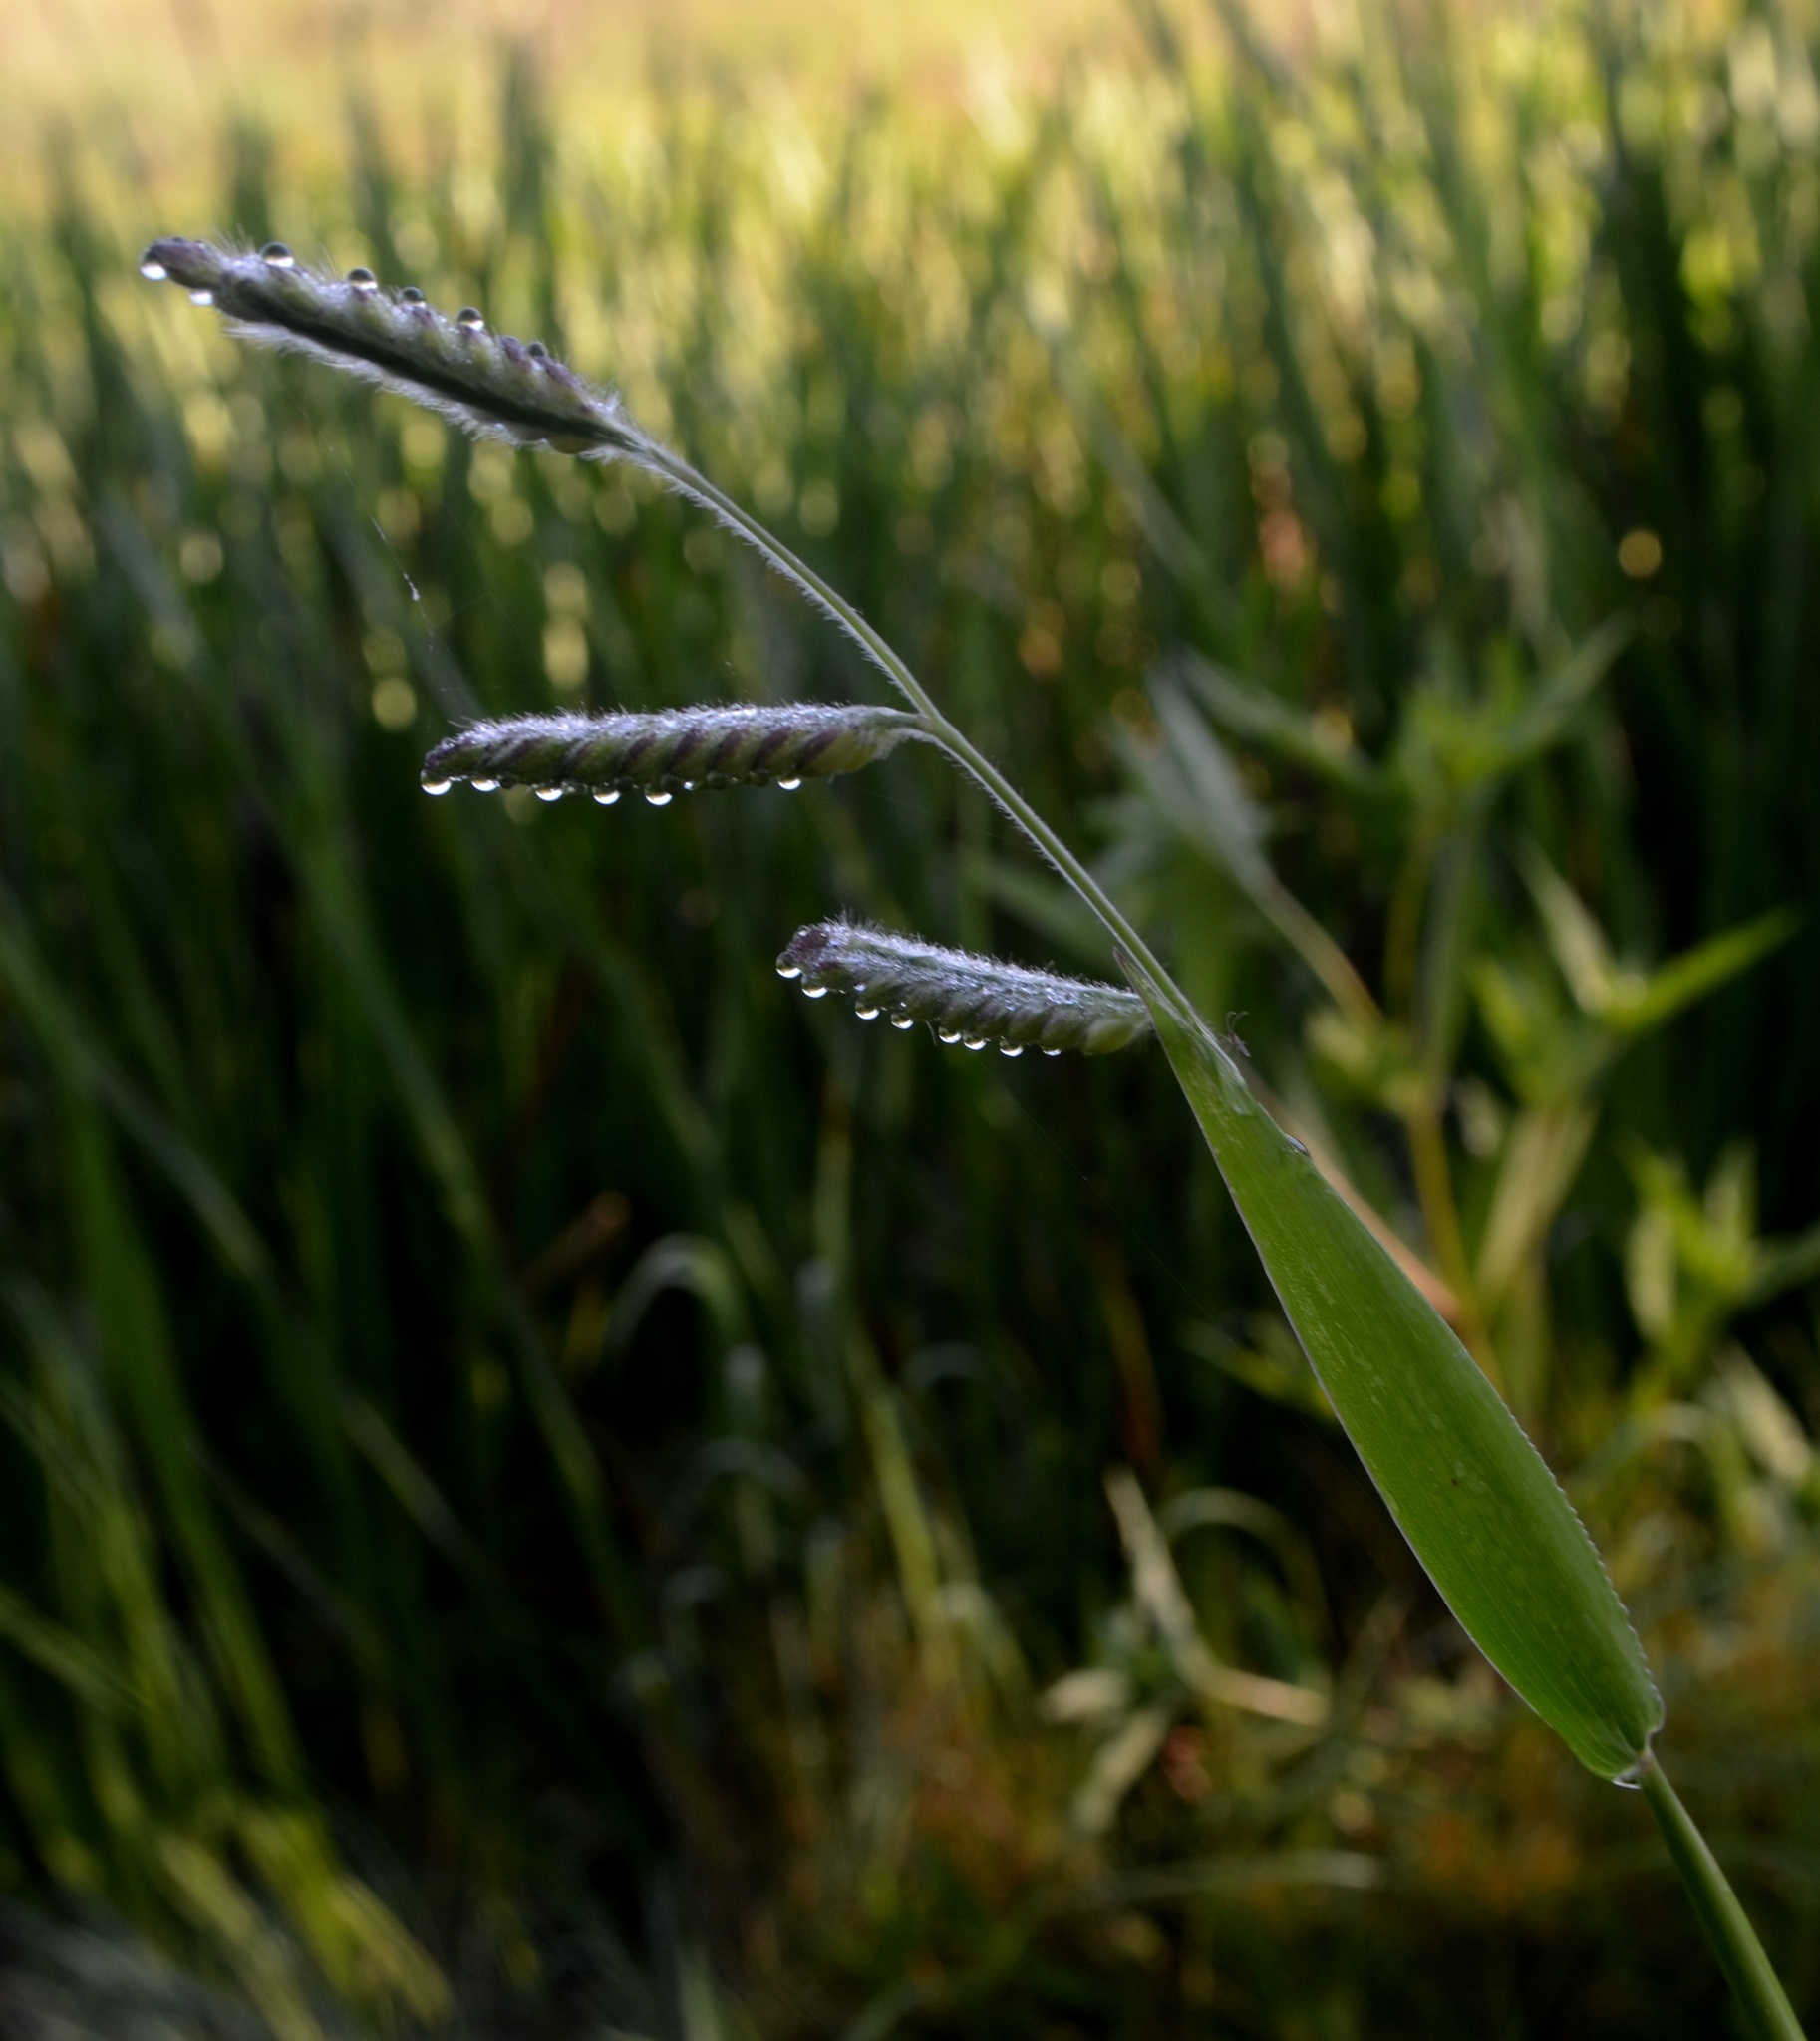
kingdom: Plantae
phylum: Tracheophyta
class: Liliopsida
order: Poales
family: Poaceae
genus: Eriochloa
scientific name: Eriochloa villosa
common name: Hairy cupgrass
